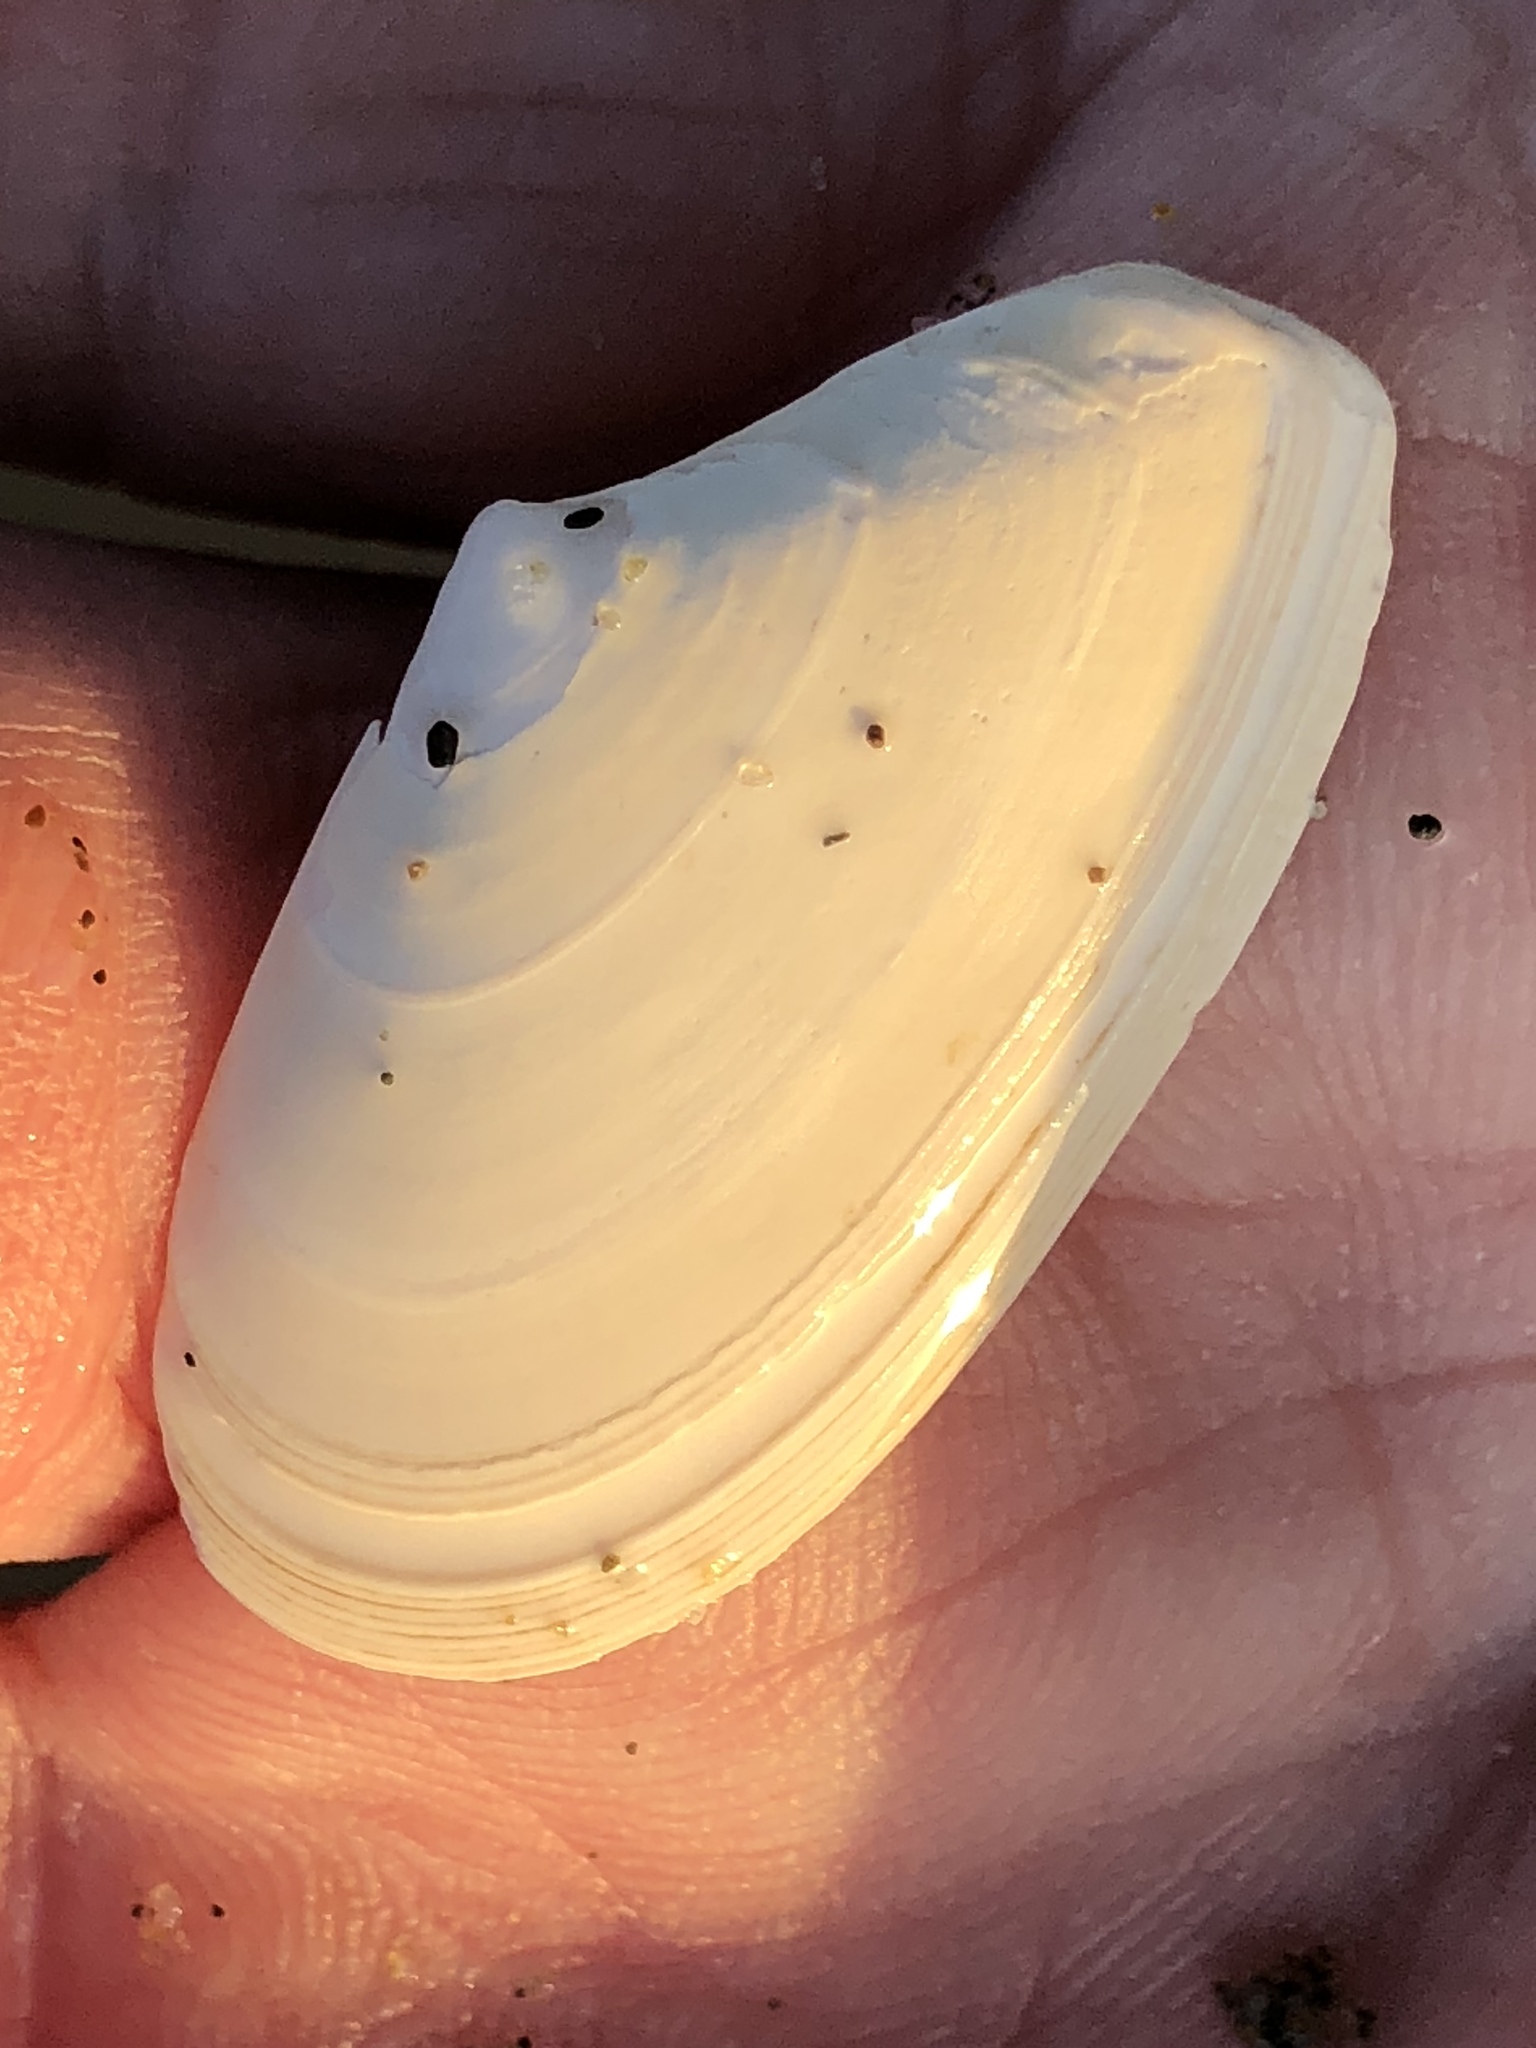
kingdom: Animalia
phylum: Mollusca
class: Bivalvia
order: Cardiida
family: Tellinidae
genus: Megangulus
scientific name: Megangulus bodegensis
